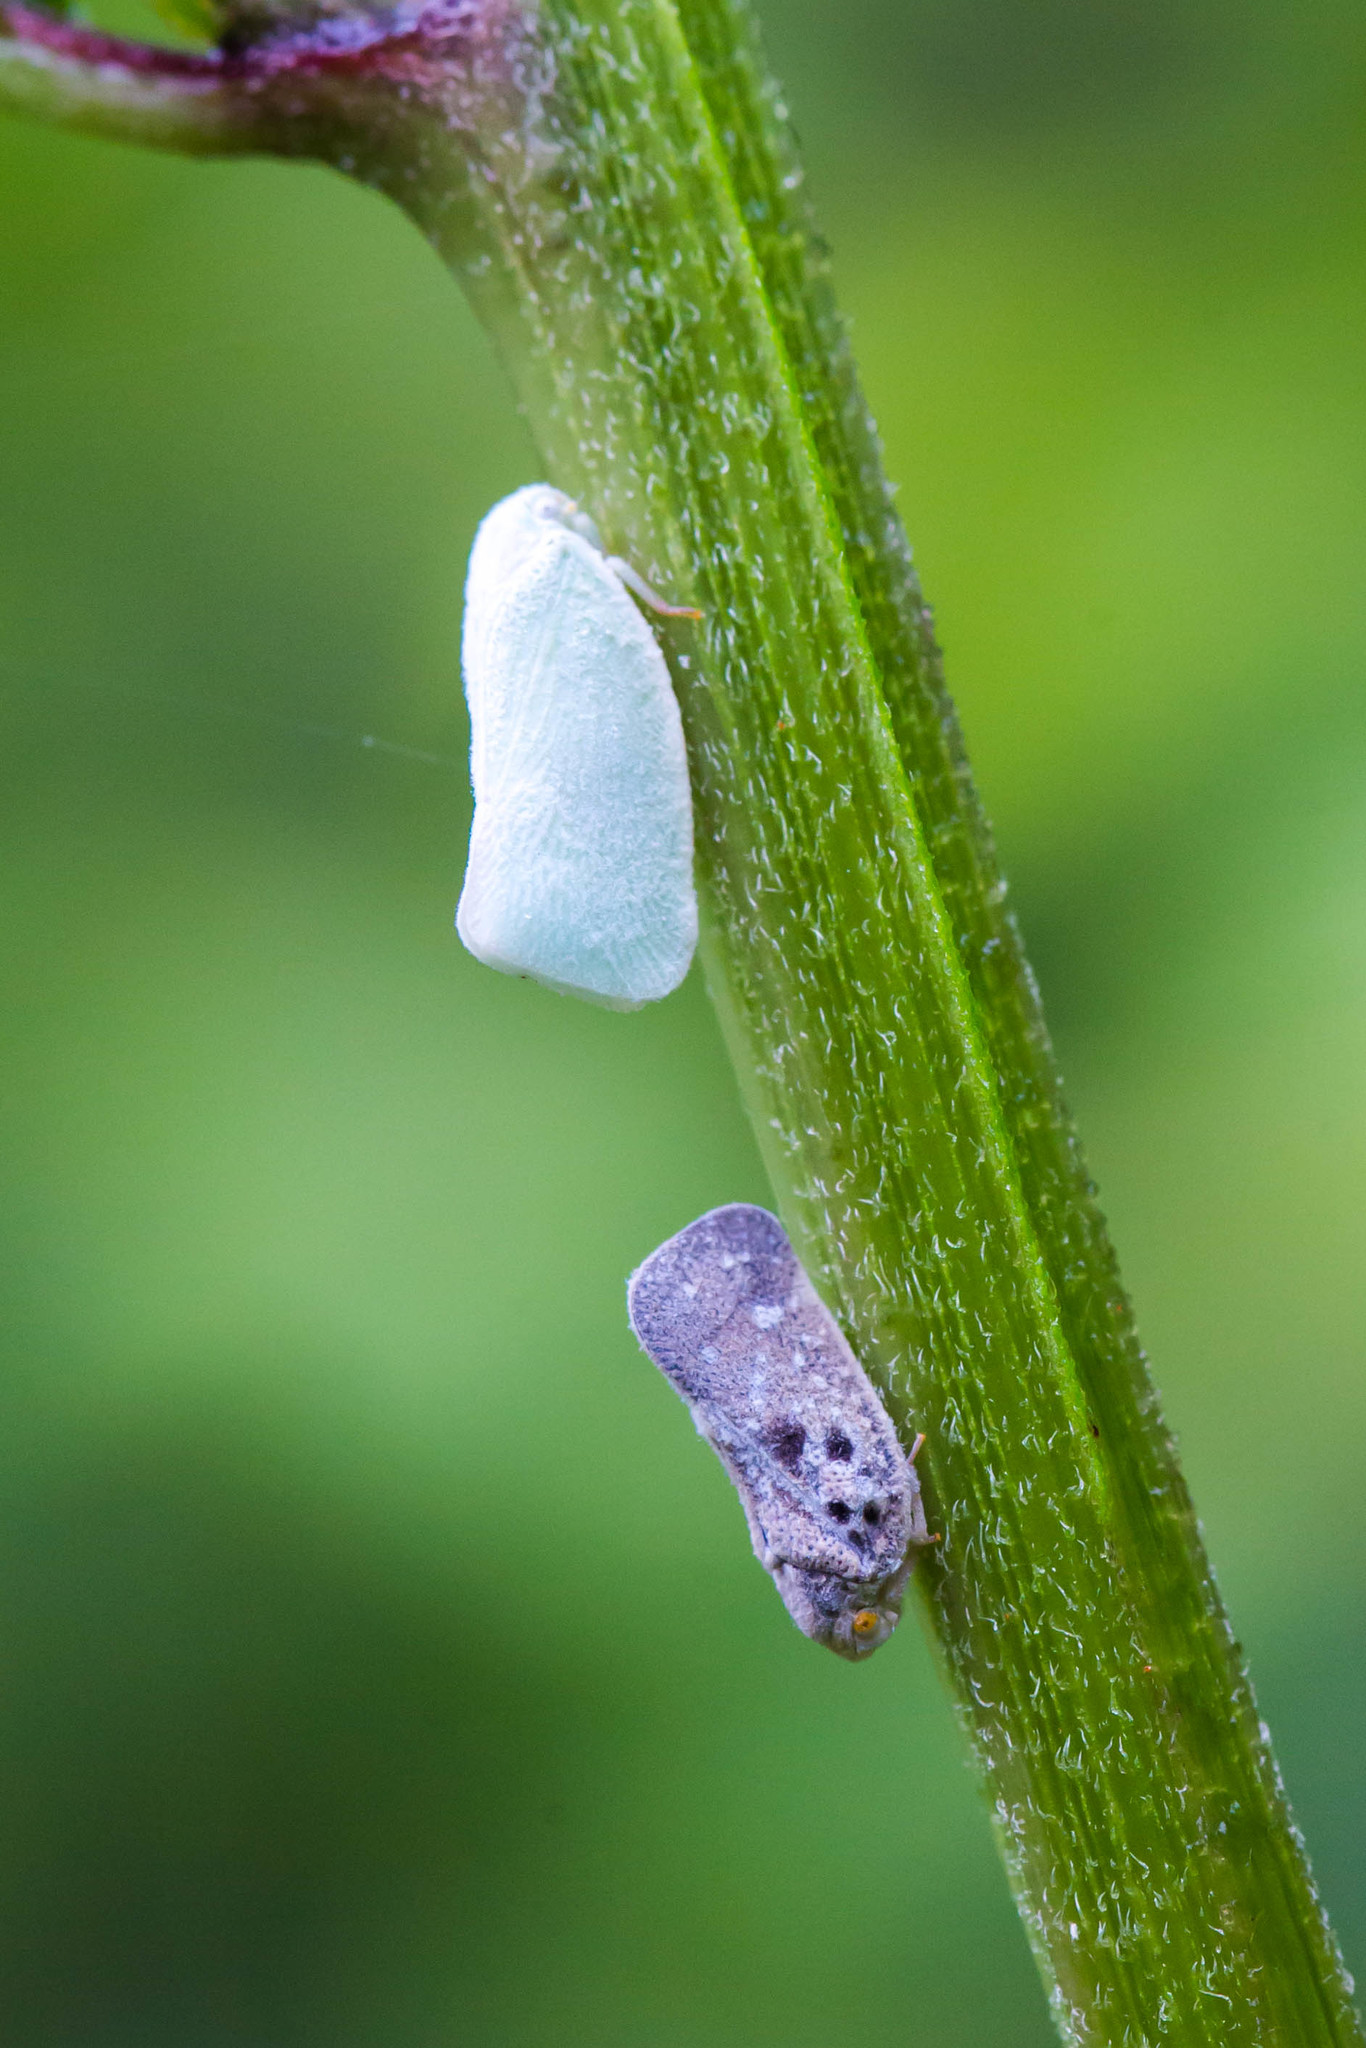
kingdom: Animalia
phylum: Arthropoda
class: Insecta
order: Hemiptera
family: Flatidae
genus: Metcalfa
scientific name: Metcalfa pruinosa
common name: Citrus flatid planthopper
